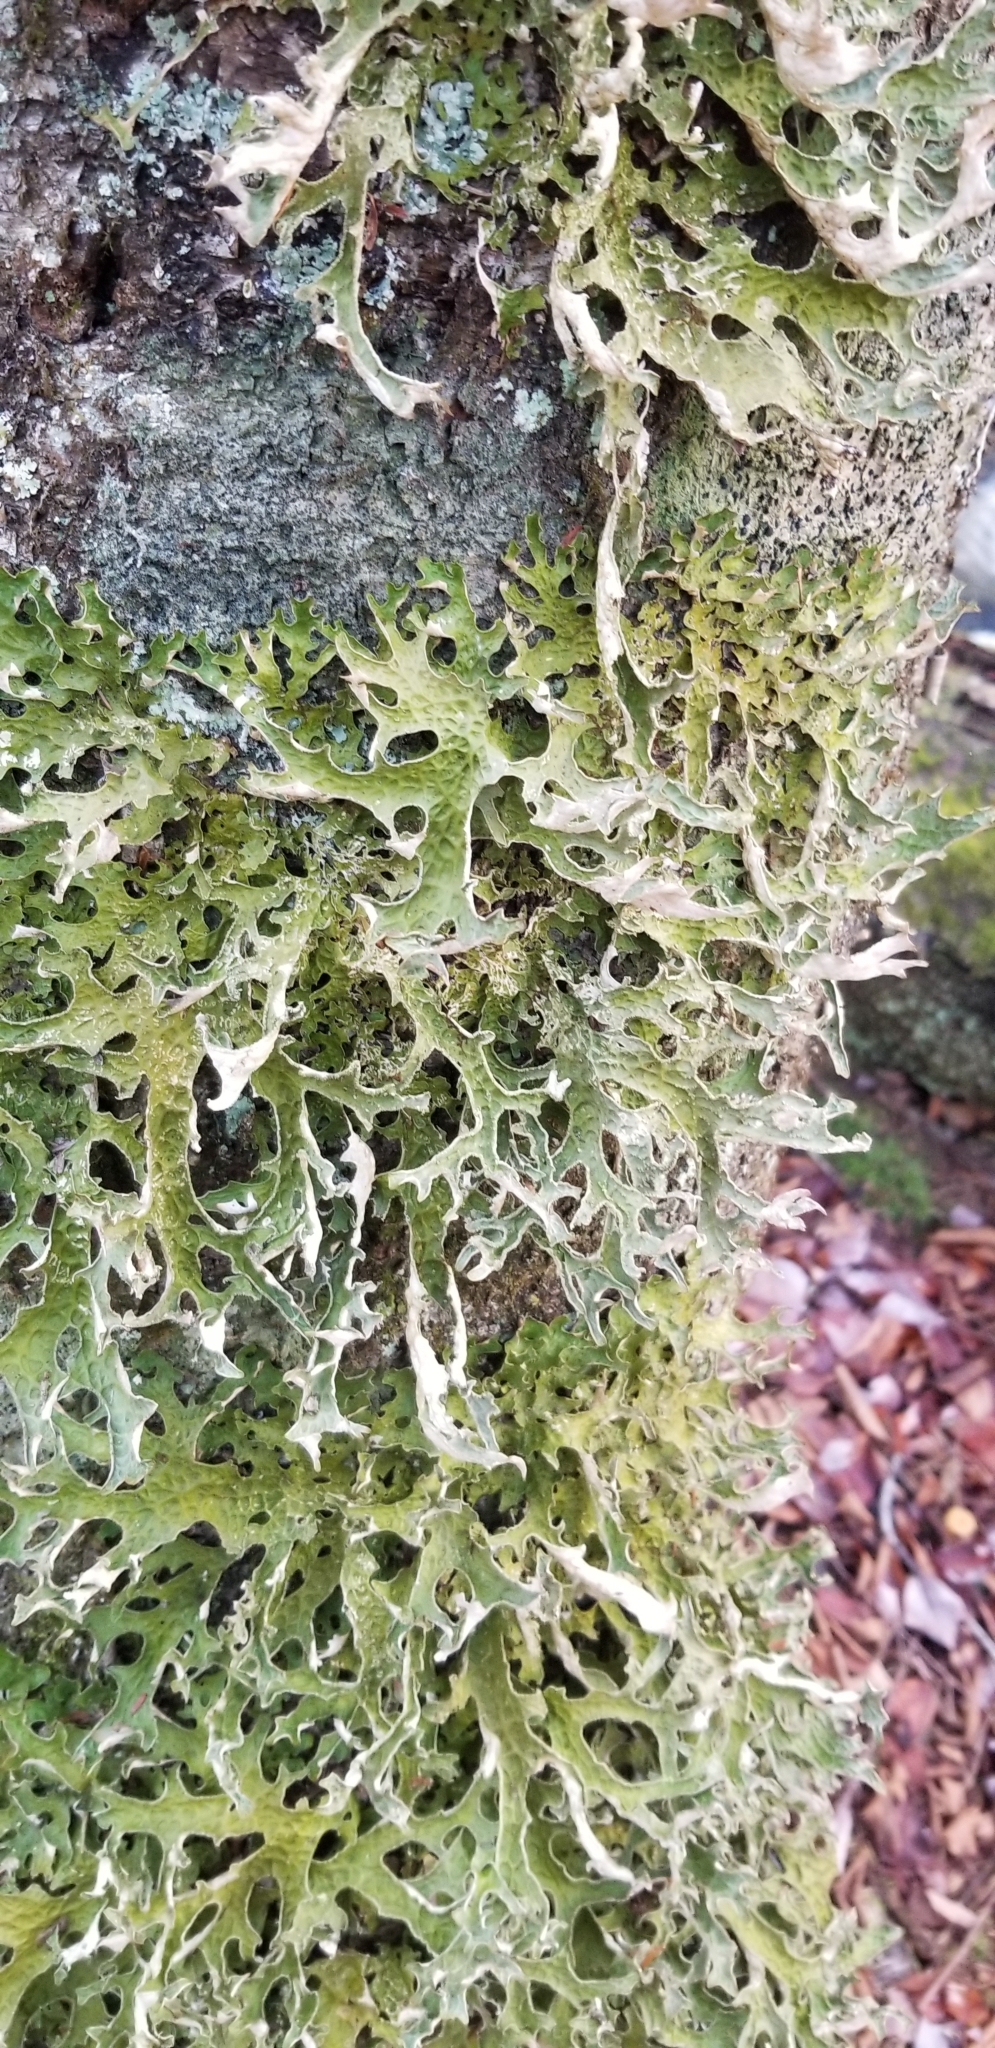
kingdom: Fungi
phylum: Ascomycota
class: Lecanoromycetes
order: Peltigerales
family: Lobariaceae
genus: Lobaria
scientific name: Lobaria pulmonaria
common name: Lungwort
